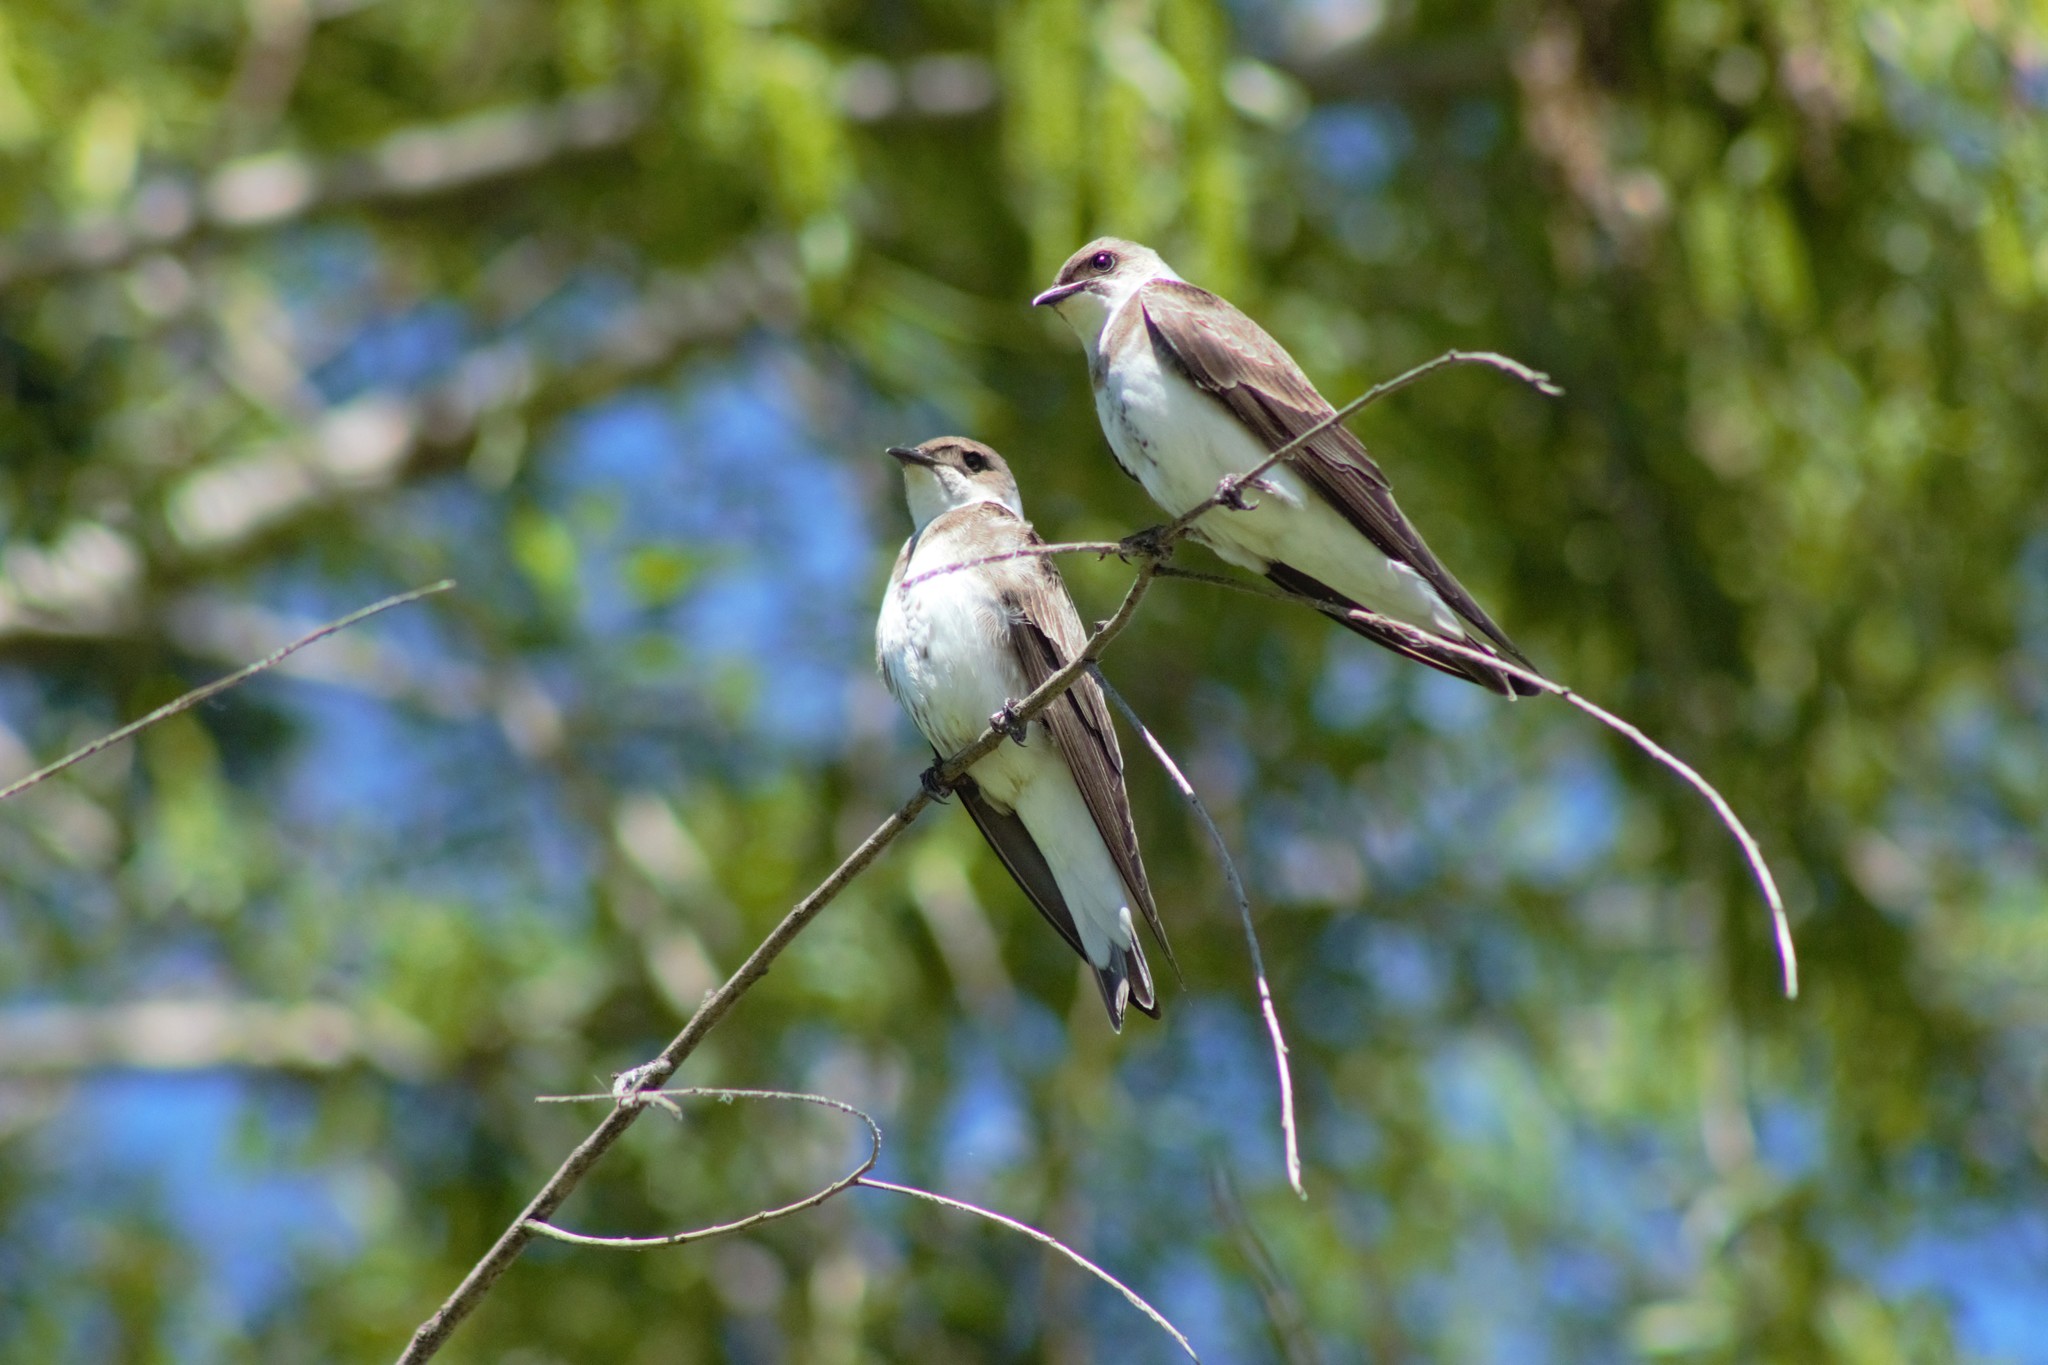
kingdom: Animalia
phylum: Chordata
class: Aves
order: Passeriformes
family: Hirundinidae
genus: Progne
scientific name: Progne tapera
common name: Brown-chested martin
